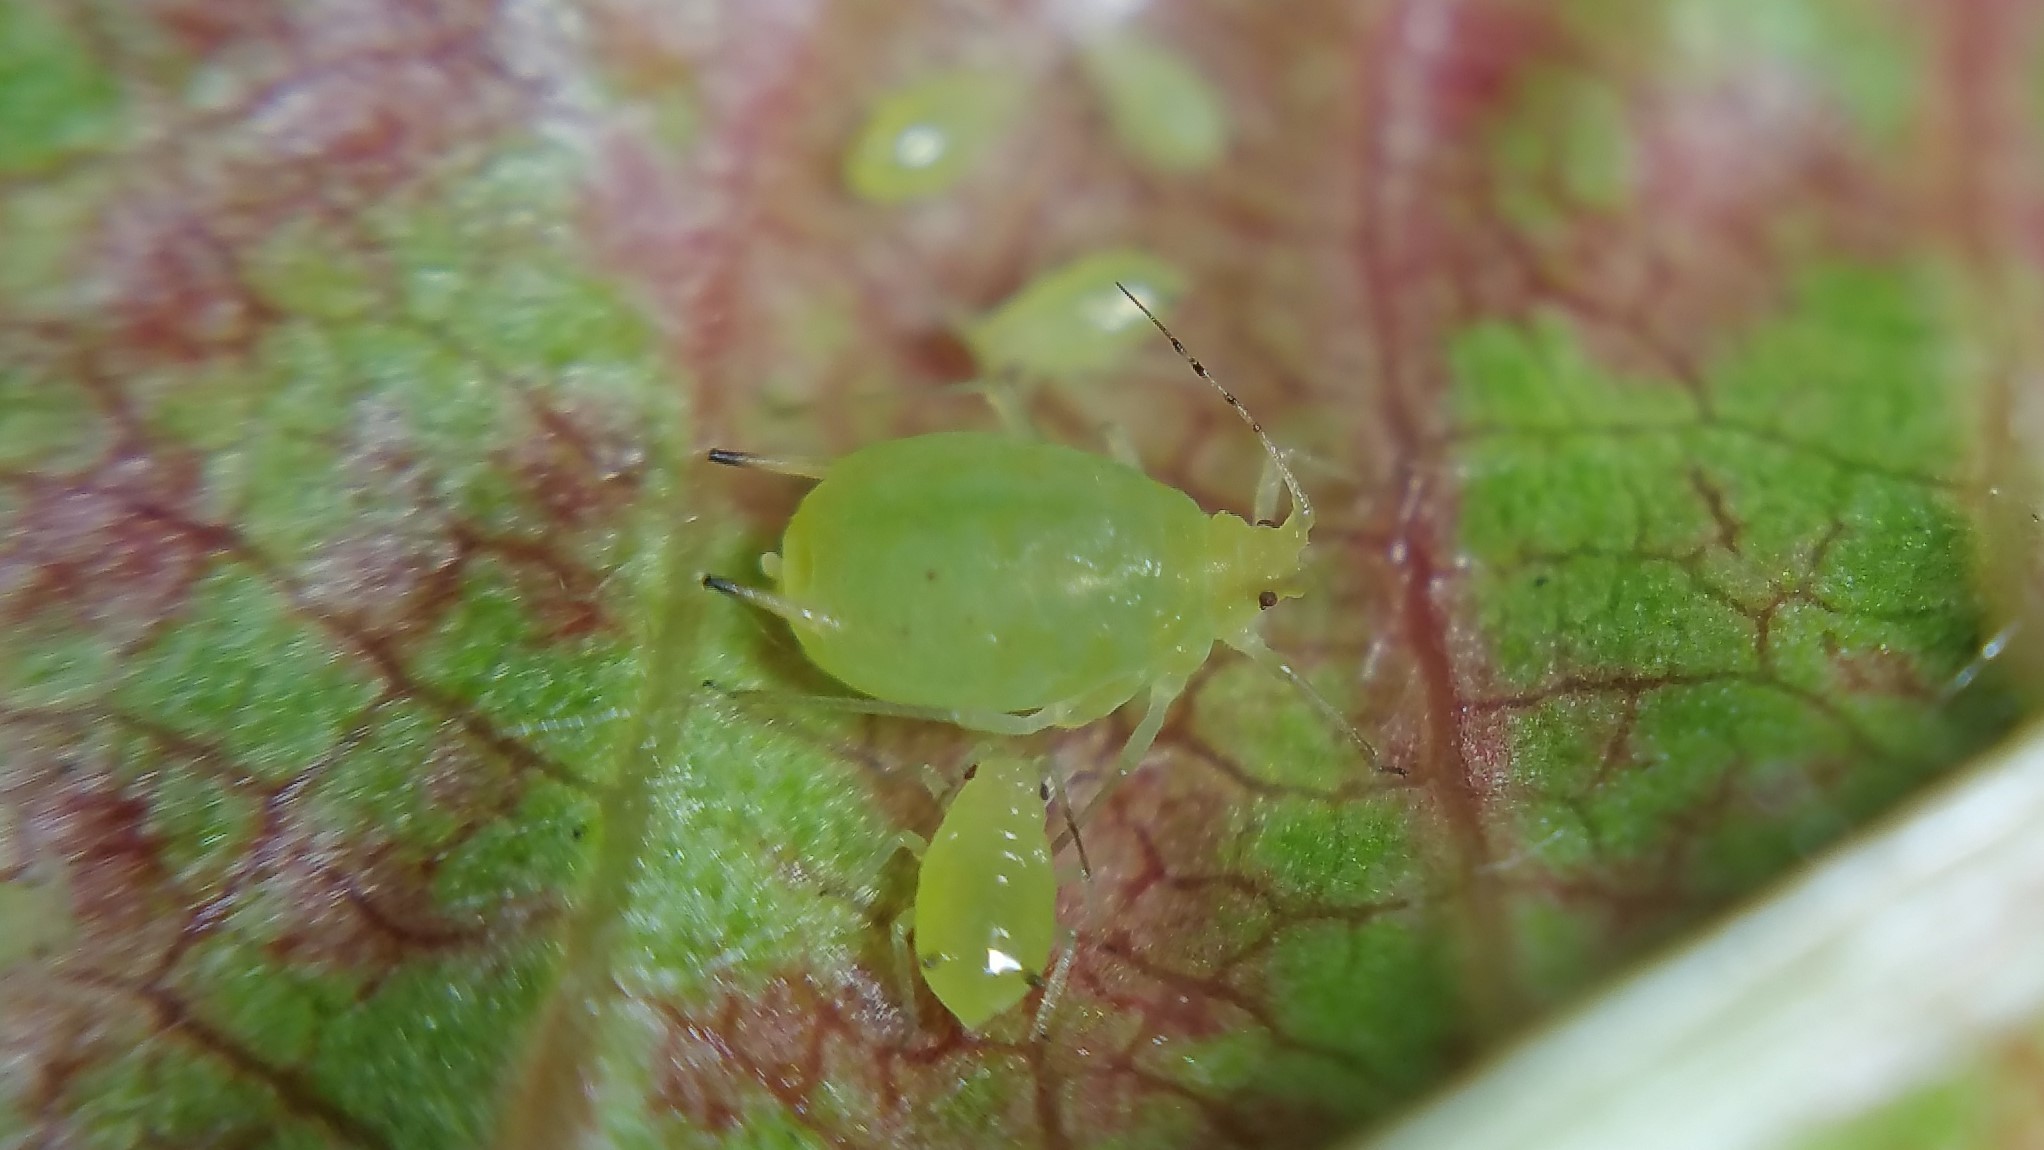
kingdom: Animalia
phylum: Arthropoda
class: Insecta
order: Hemiptera
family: Aphididae
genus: Myzus
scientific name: Myzus varians
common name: Large peach aphid
